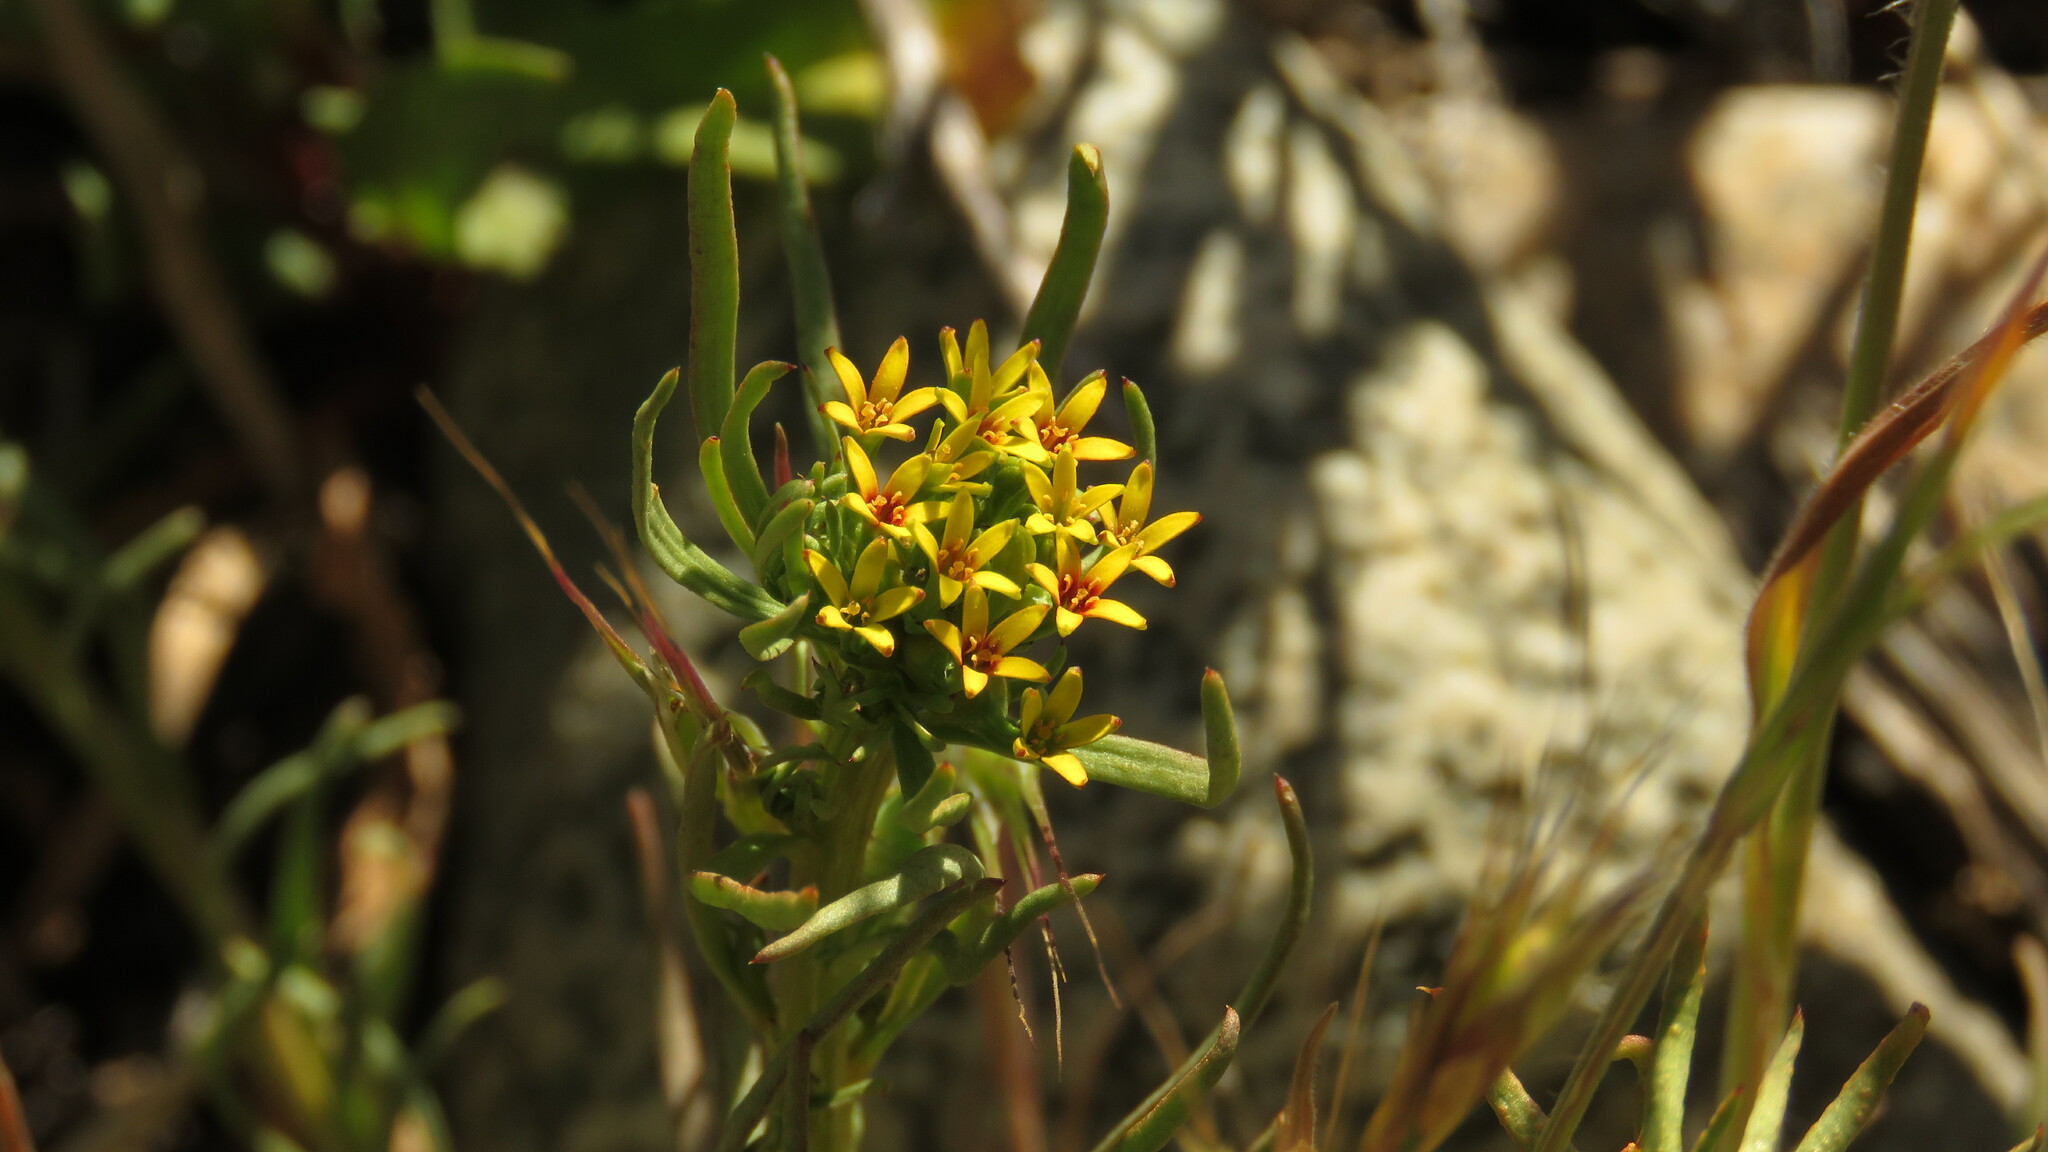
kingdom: Plantae
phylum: Tracheophyta
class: Magnoliopsida
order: Santalales
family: Schoepfiaceae
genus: Quinchamalium
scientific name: Quinchamalium chilense
